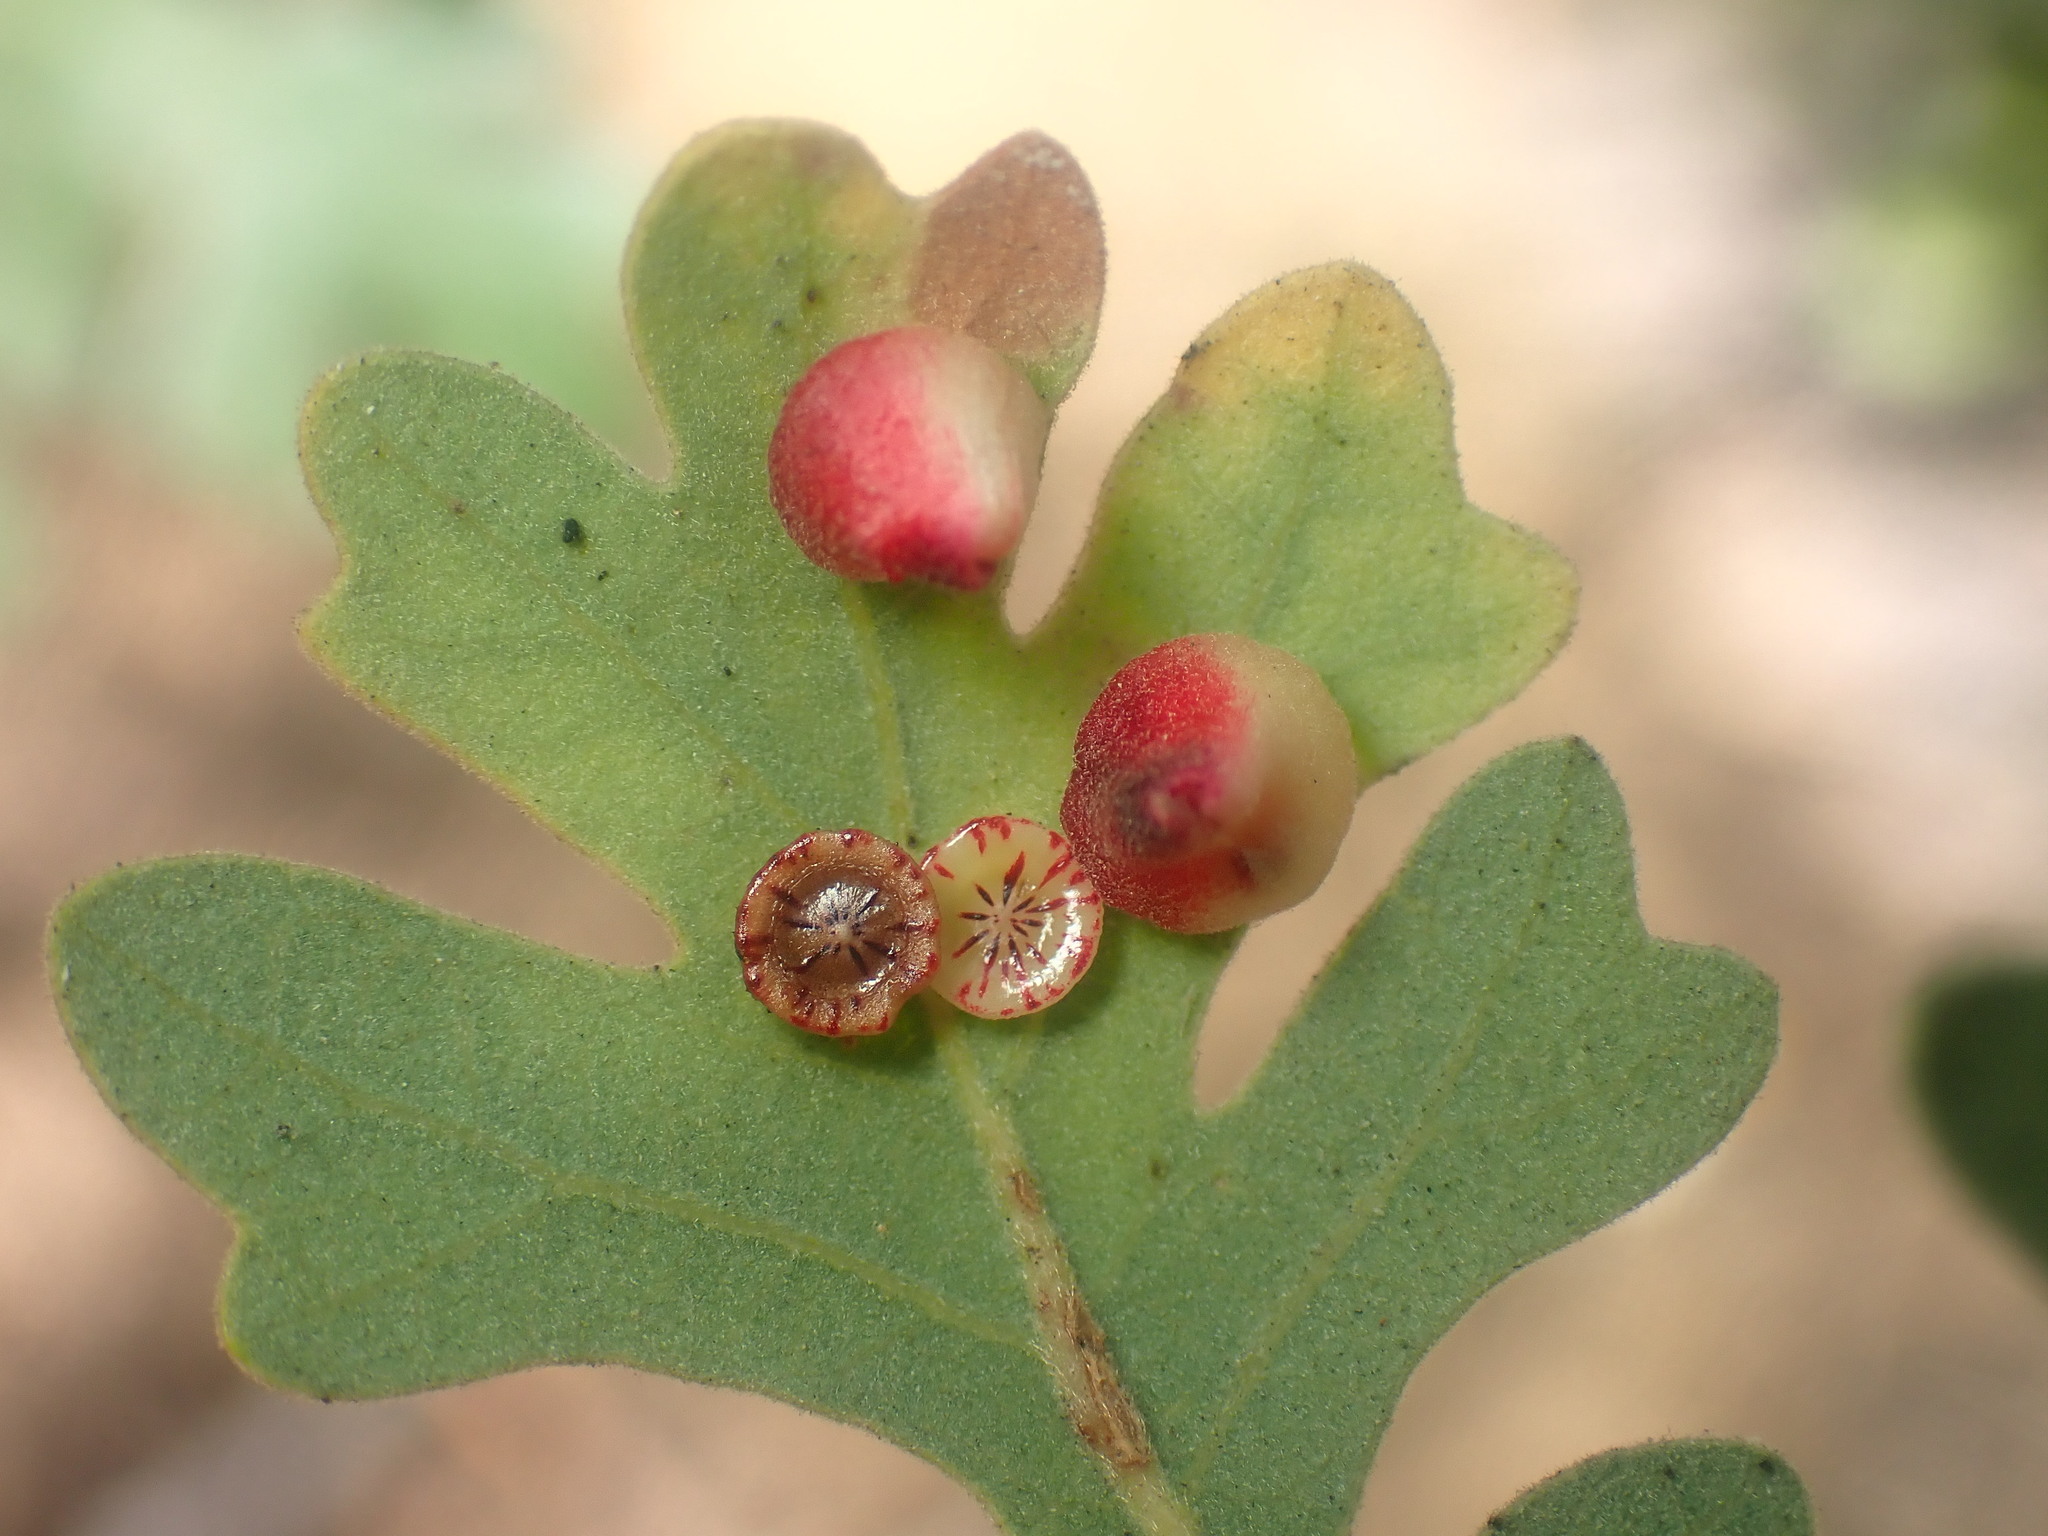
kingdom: Animalia
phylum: Arthropoda
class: Insecta
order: Hymenoptera
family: Cynipidae
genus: Andricus
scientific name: Andricus
